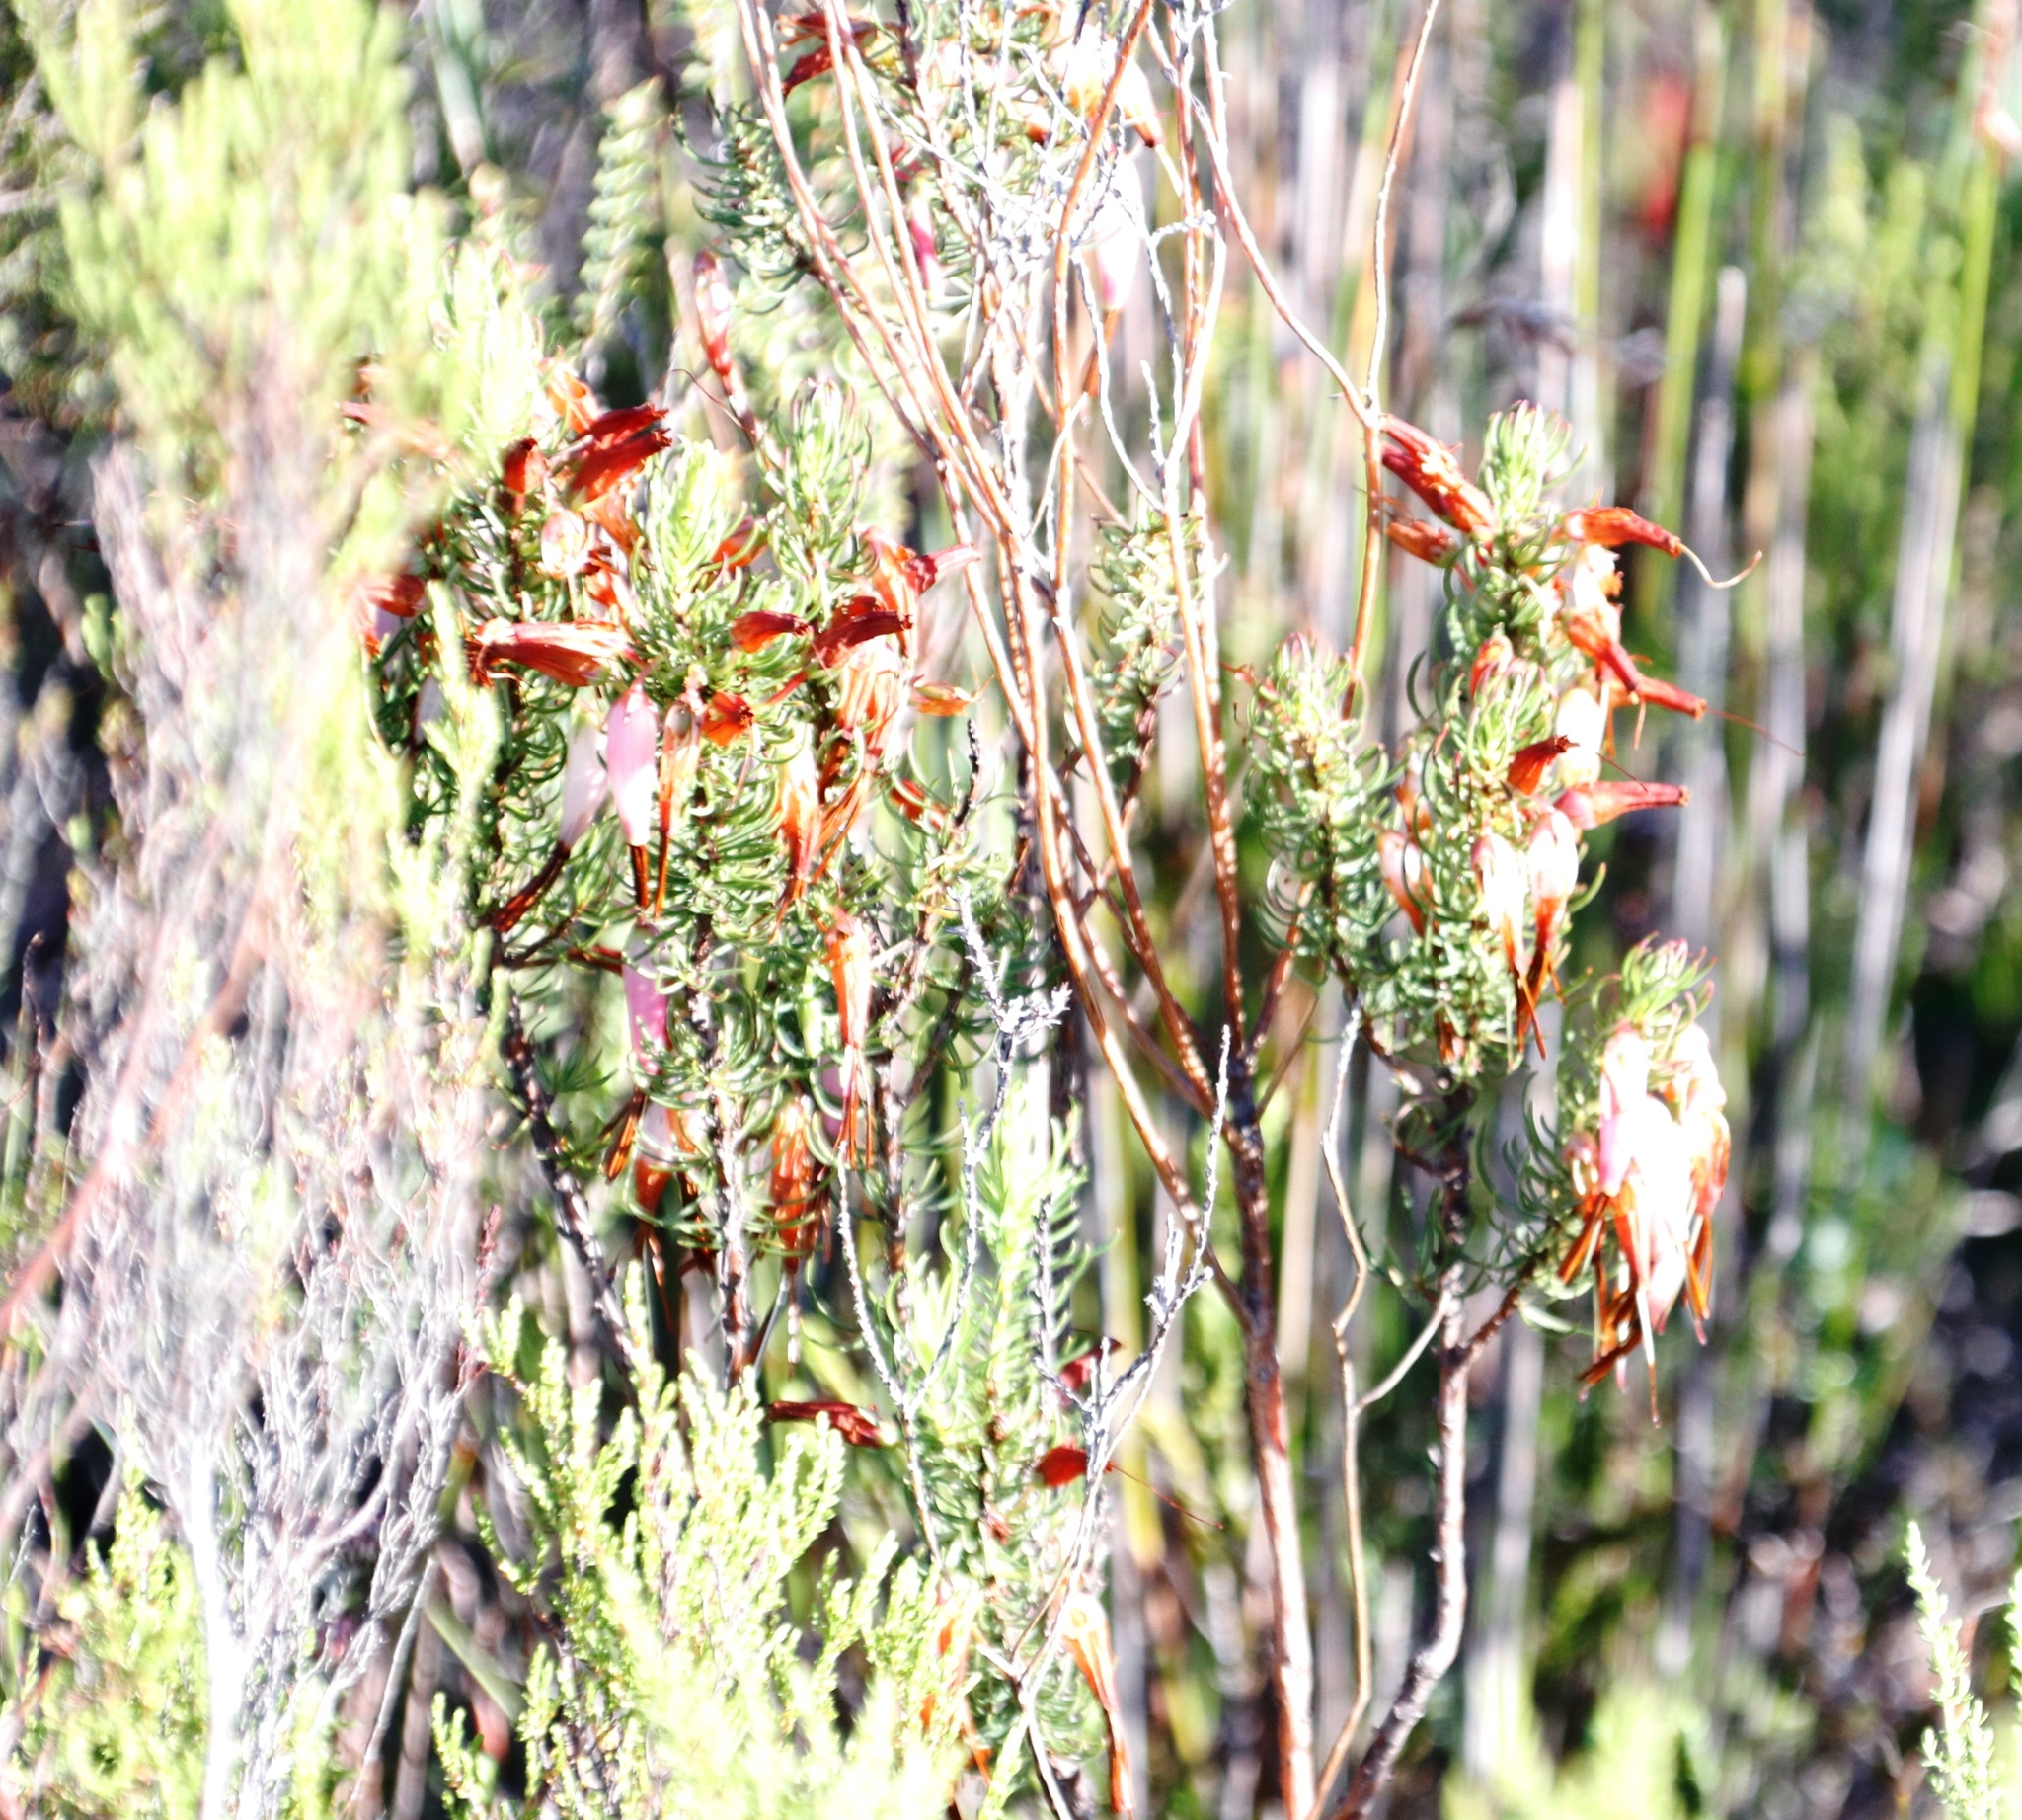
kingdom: Plantae
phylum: Tracheophyta
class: Magnoliopsida
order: Ericales
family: Ericaceae
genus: Erica
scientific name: Erica plukenetii
